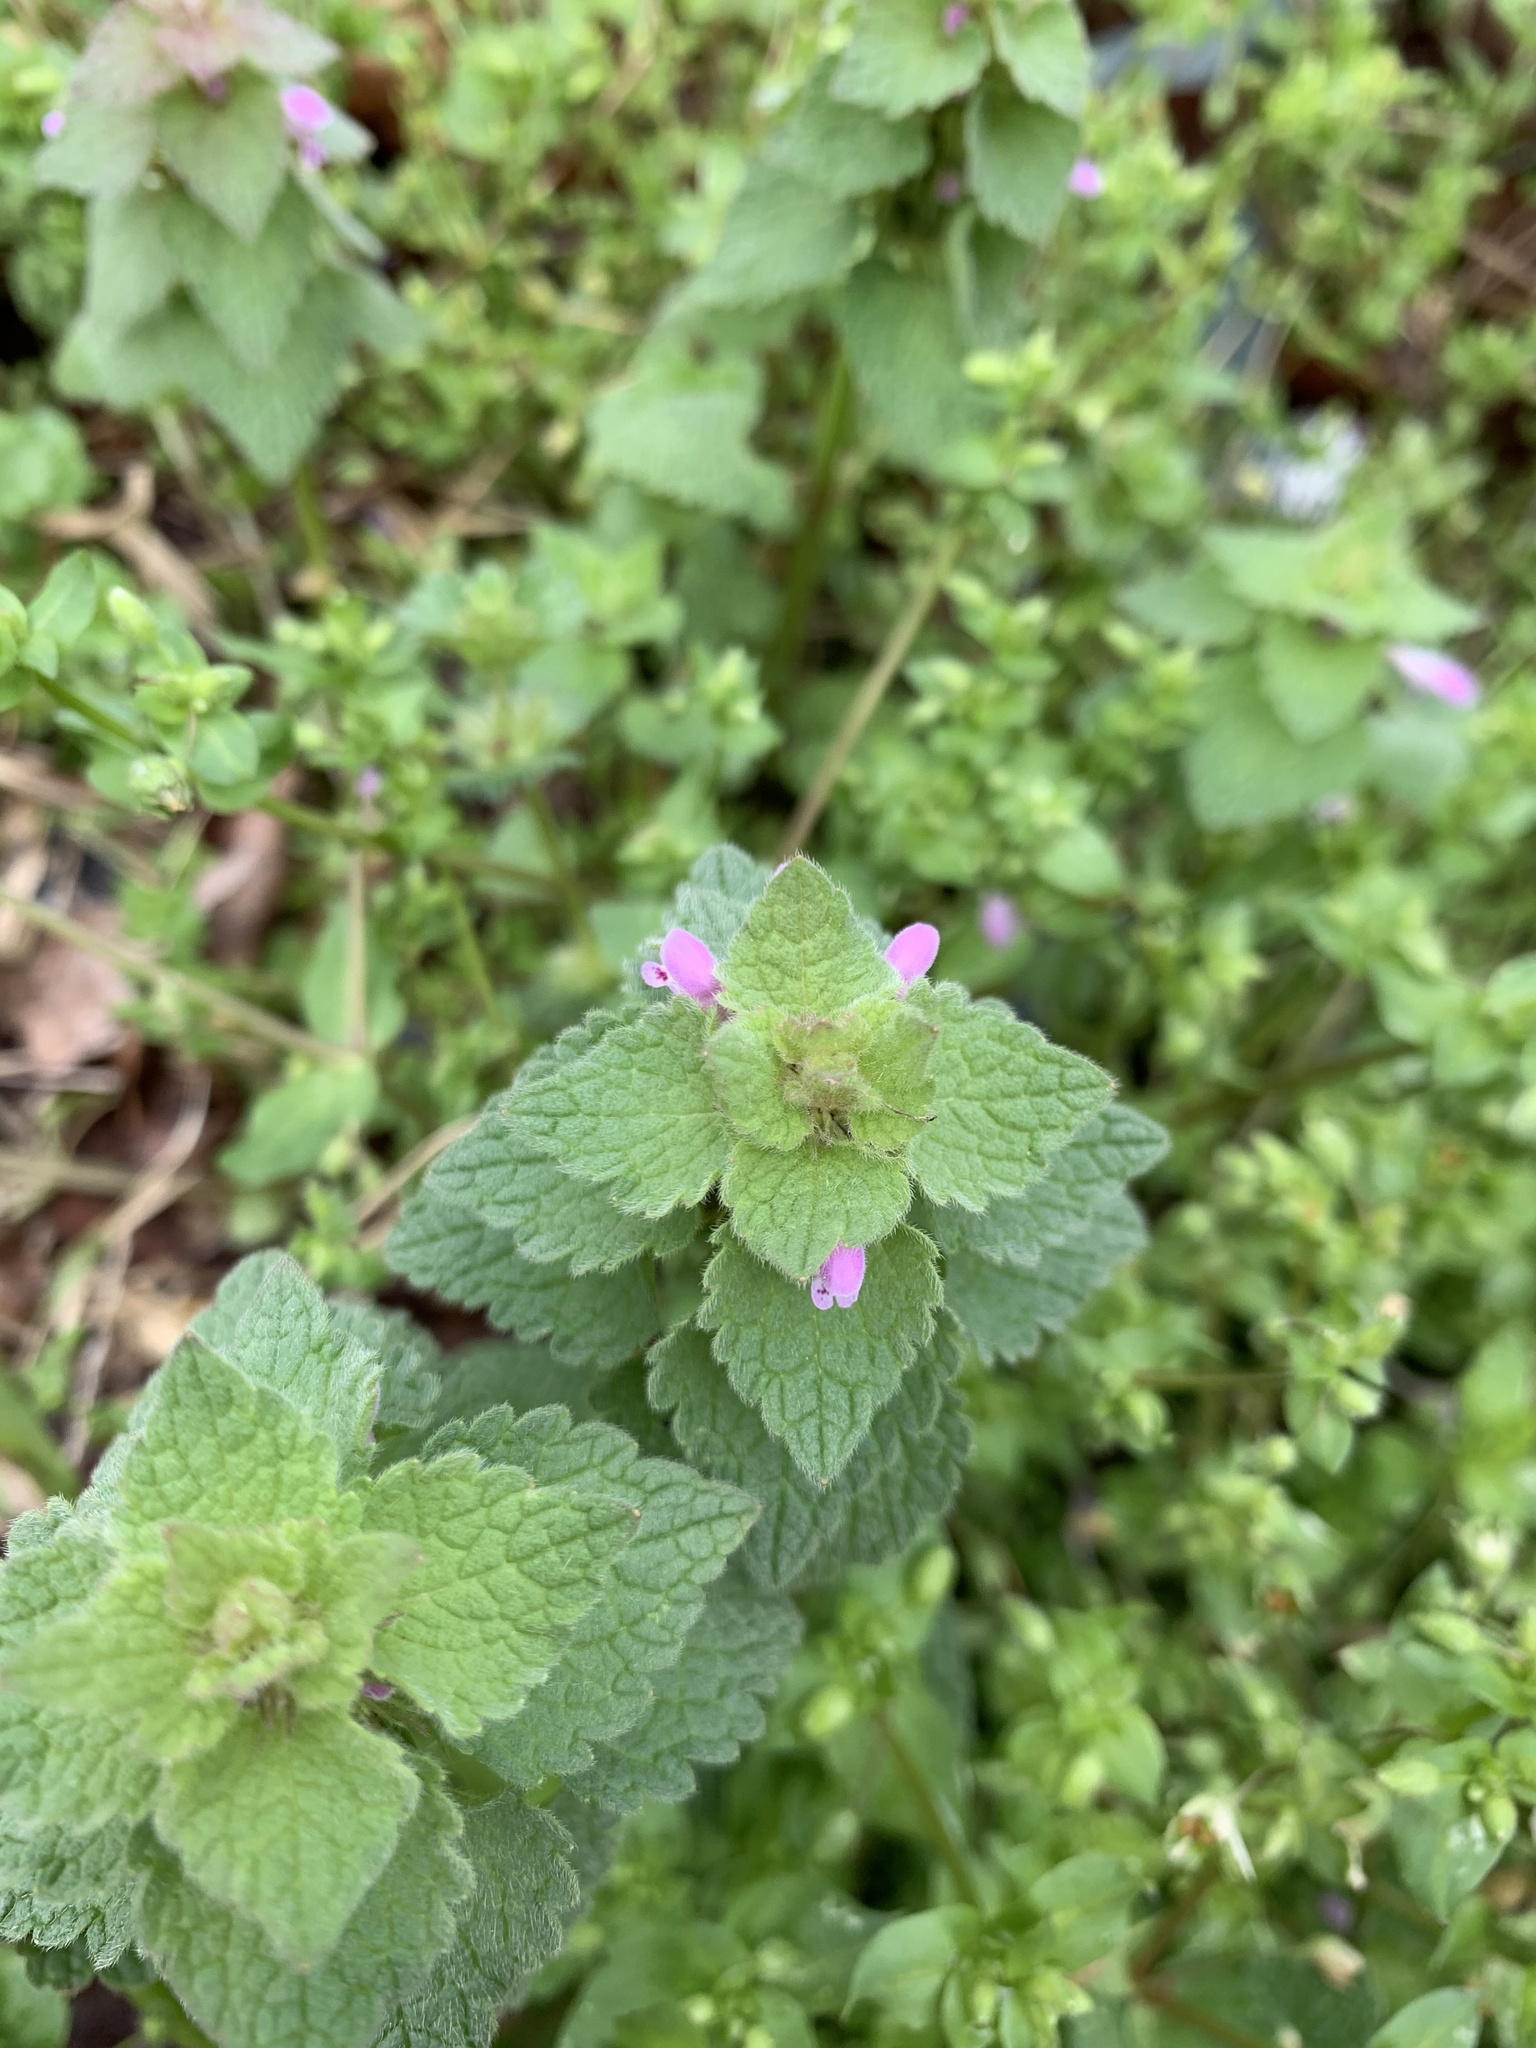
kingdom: Plantae
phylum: Tracheophyta
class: Magnoliopsida
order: Lamiales
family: Lamiaceae
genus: Lamium
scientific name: Lamium purpureum
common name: Red dead-nettle
